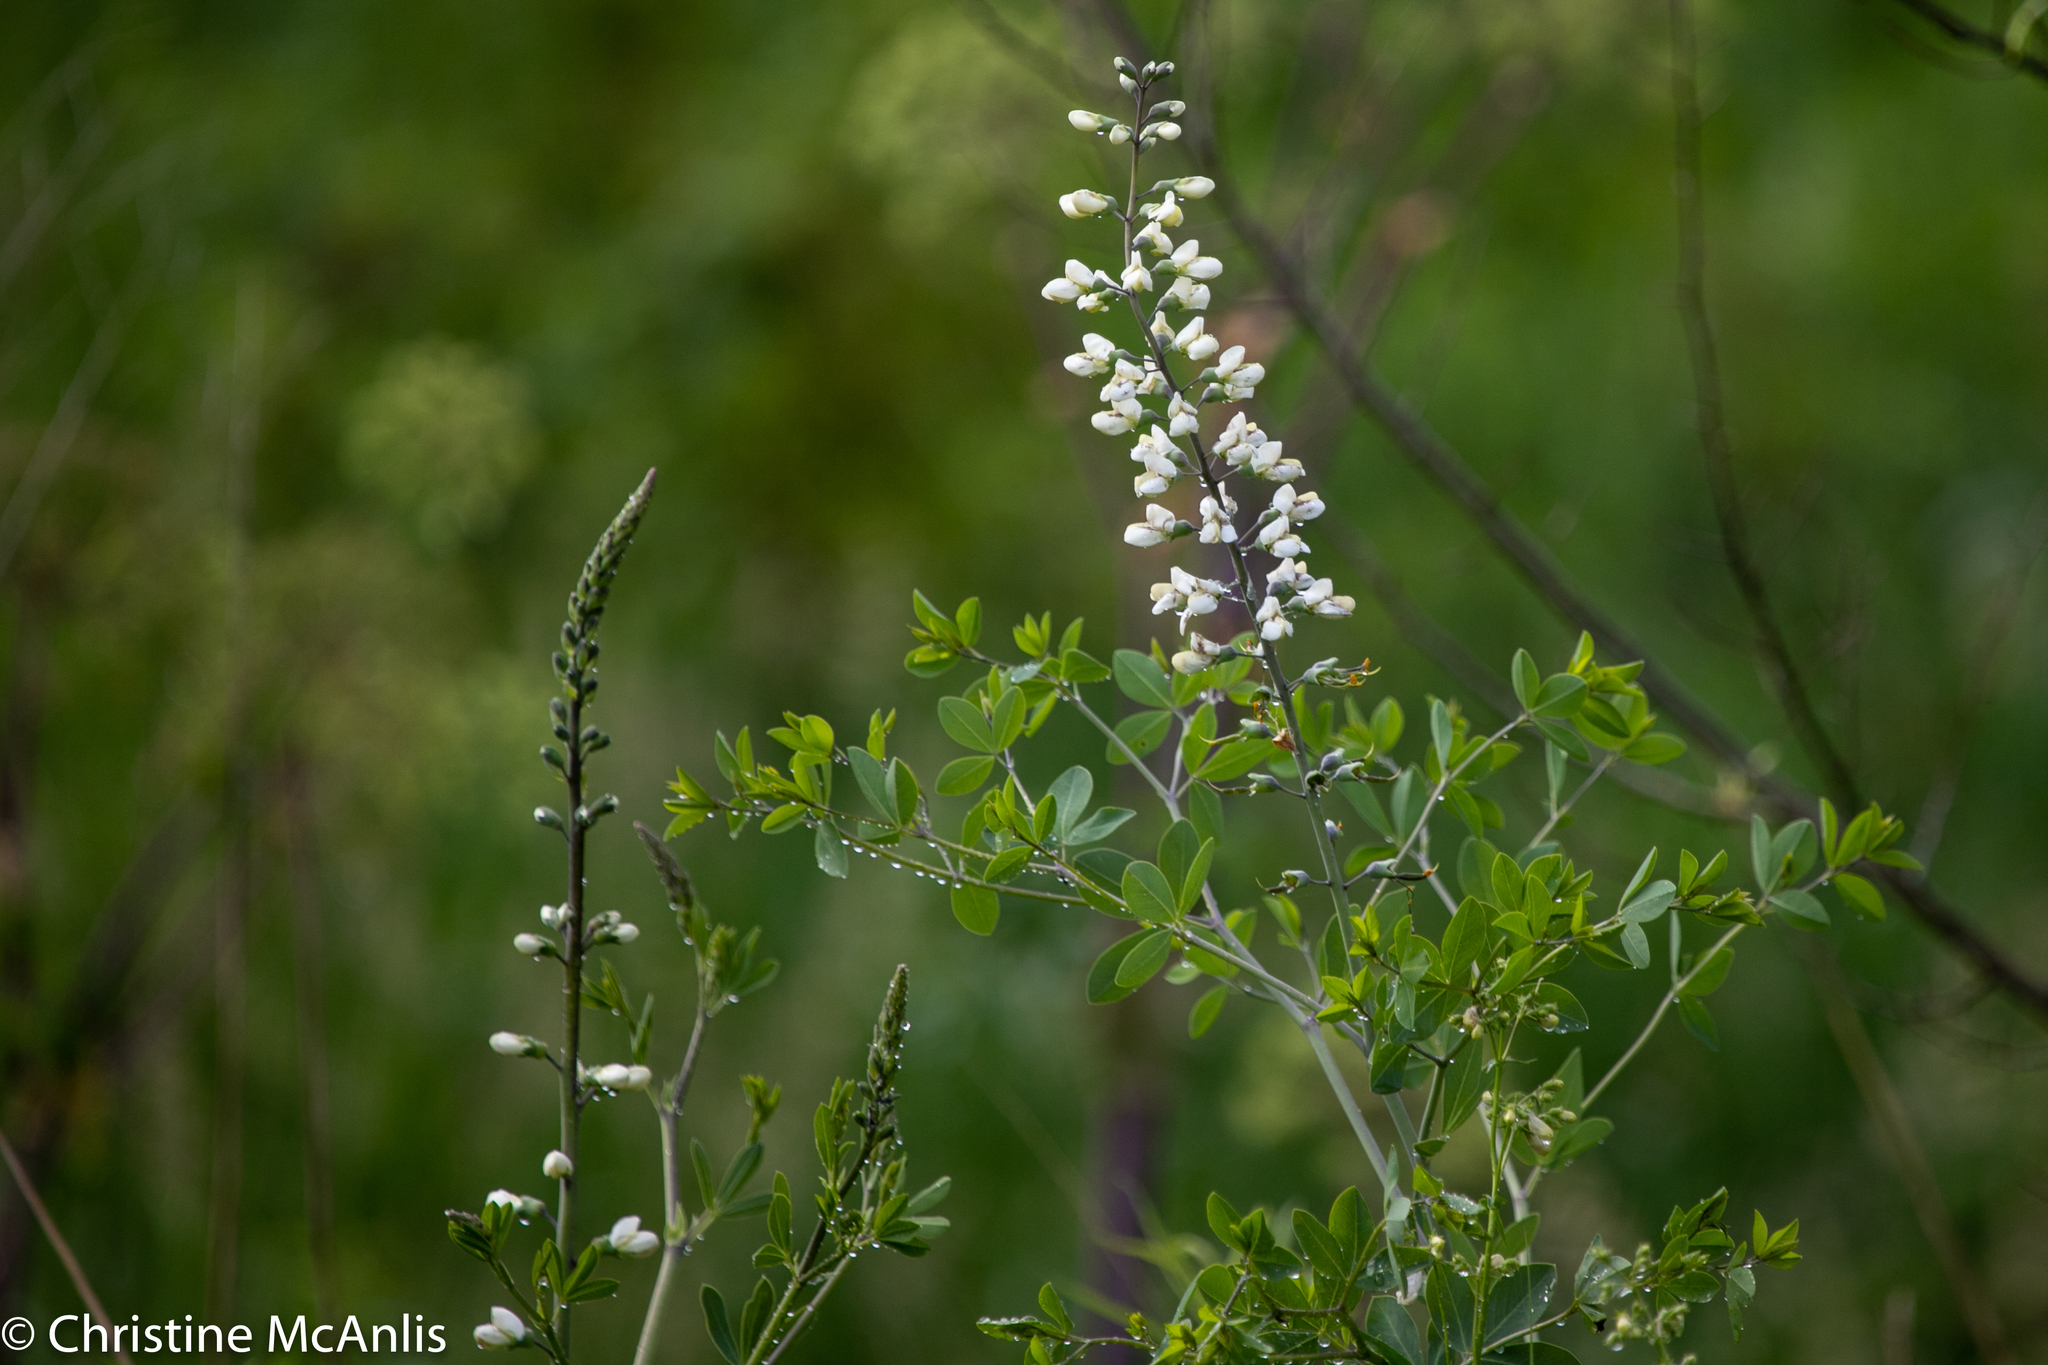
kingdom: Plantae
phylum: Tracheophyta
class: Magnoliopsida
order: Fabales
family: Fabaceae
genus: Baptisia
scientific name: Baptisia alba
